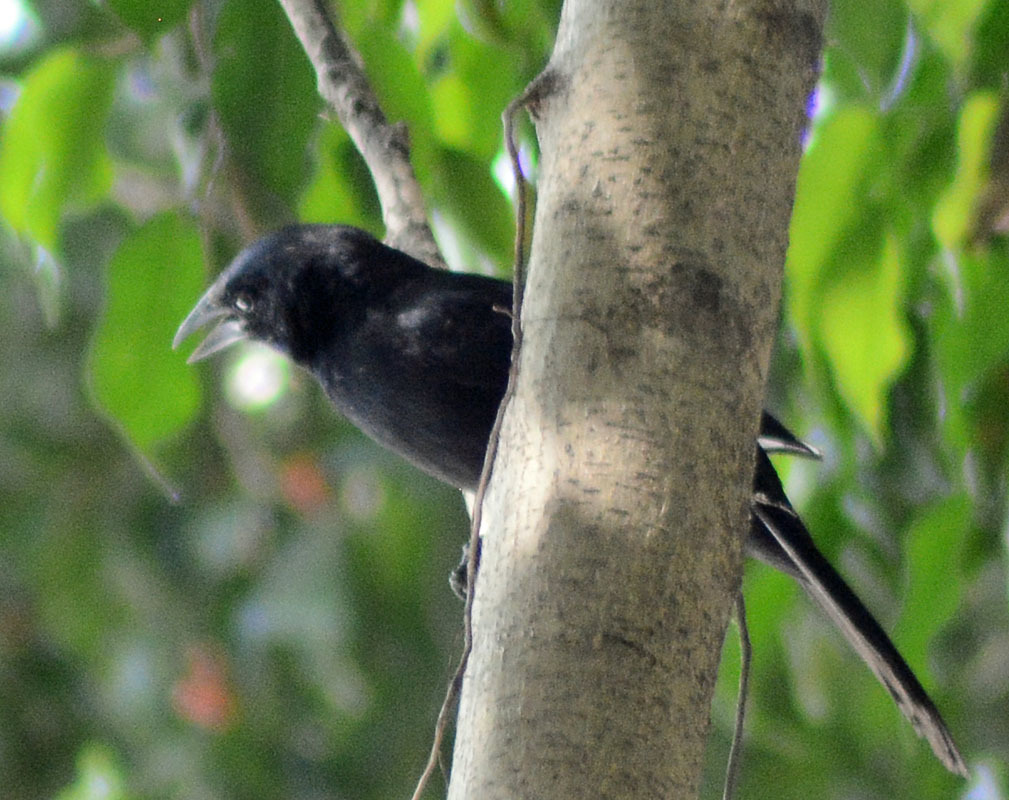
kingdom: Animalia
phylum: Chordata
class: Aves
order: Passeriformes
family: Icteridae
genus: Dives
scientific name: Dives dives
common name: Melodious blackbird
